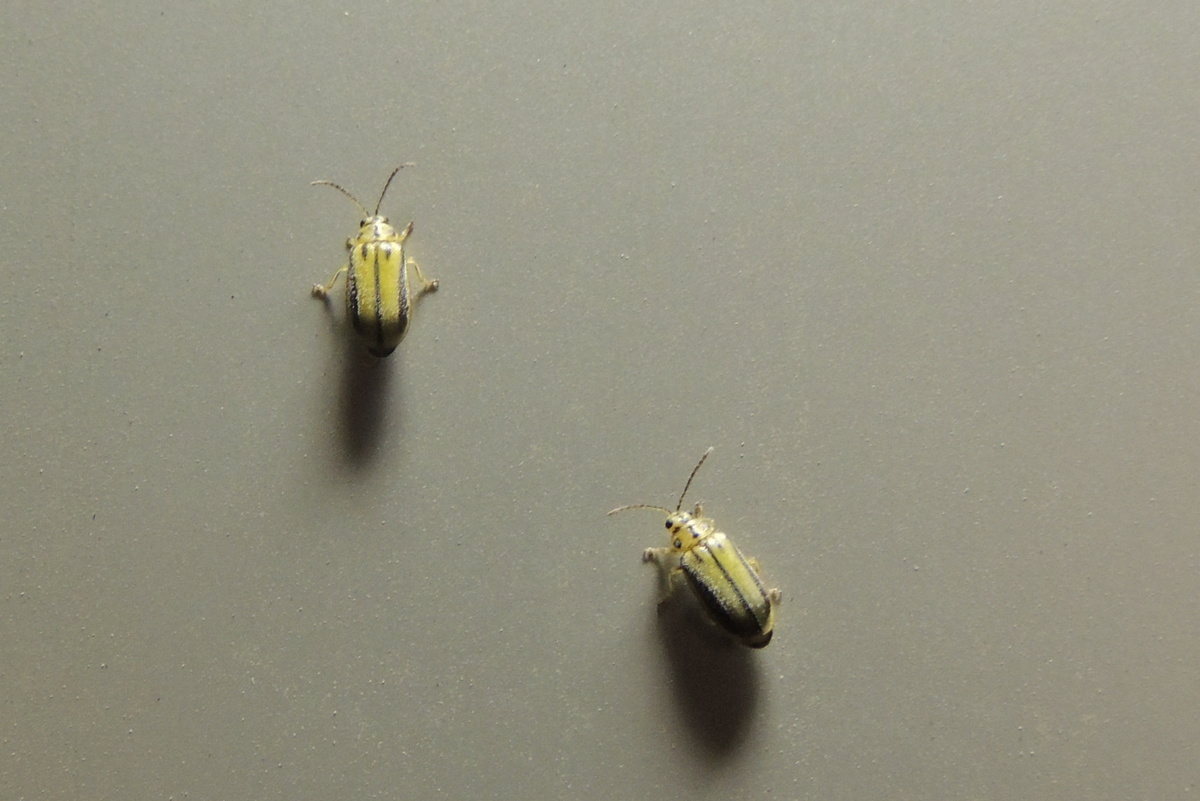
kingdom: Animalia
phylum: Arthropoda
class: Insecta
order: Coleoptera
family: Chrysomelidae
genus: Xanthogaleruca
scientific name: Xanthogaleruca luteola
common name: Elm leaf beetle
